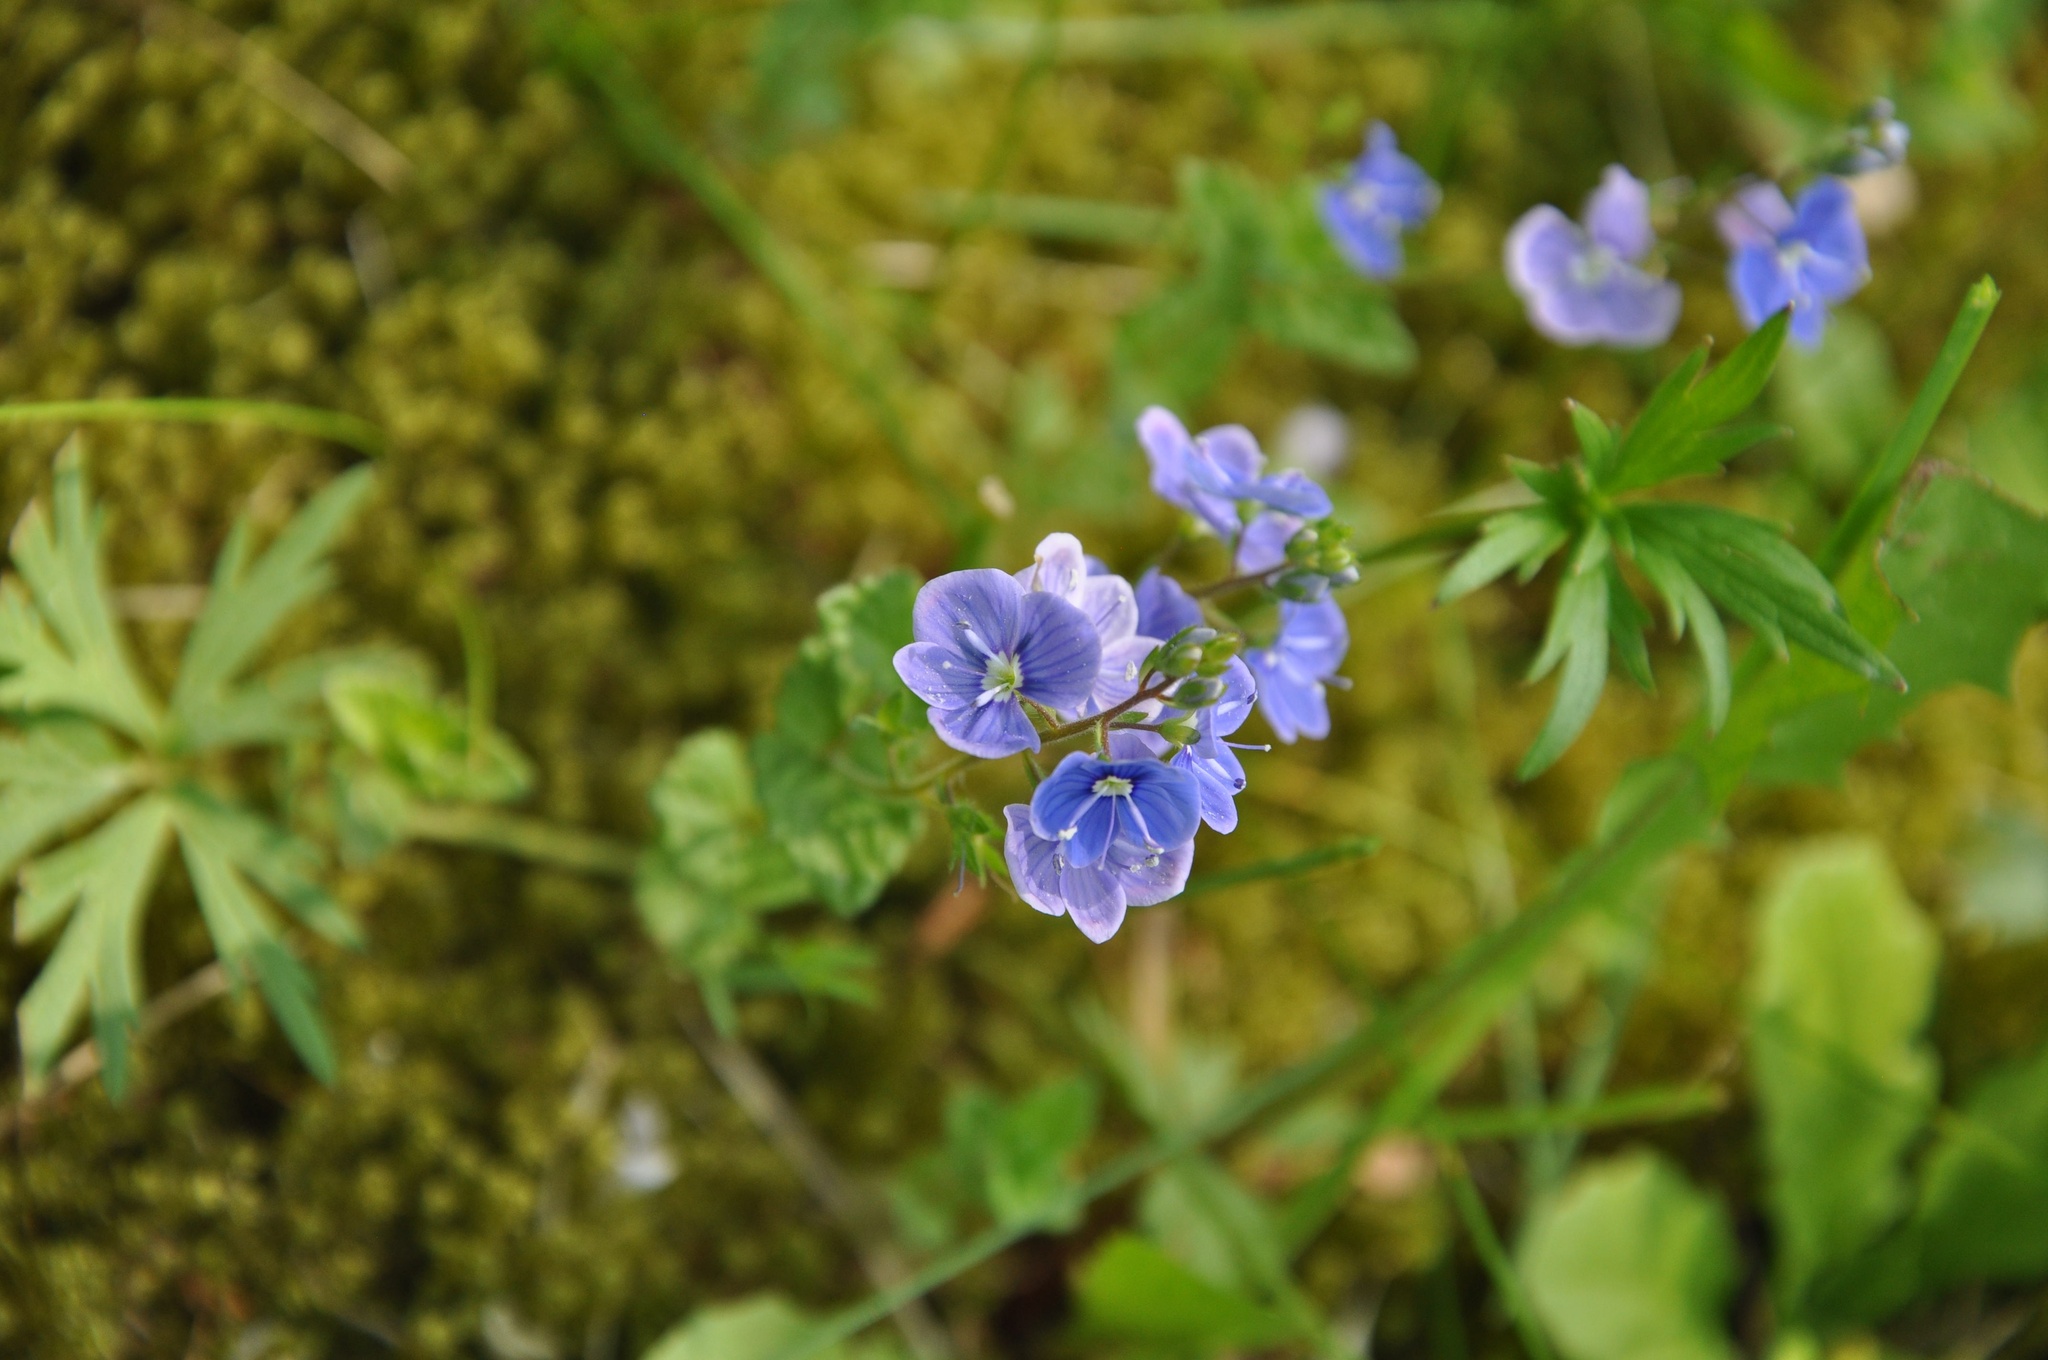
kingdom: Plantae
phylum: Tracheophyta
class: Magnoliopsida
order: Lamiales
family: Plantaginaceae
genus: Veronica
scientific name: Veronica chamaedrys
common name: Germander speedwell
